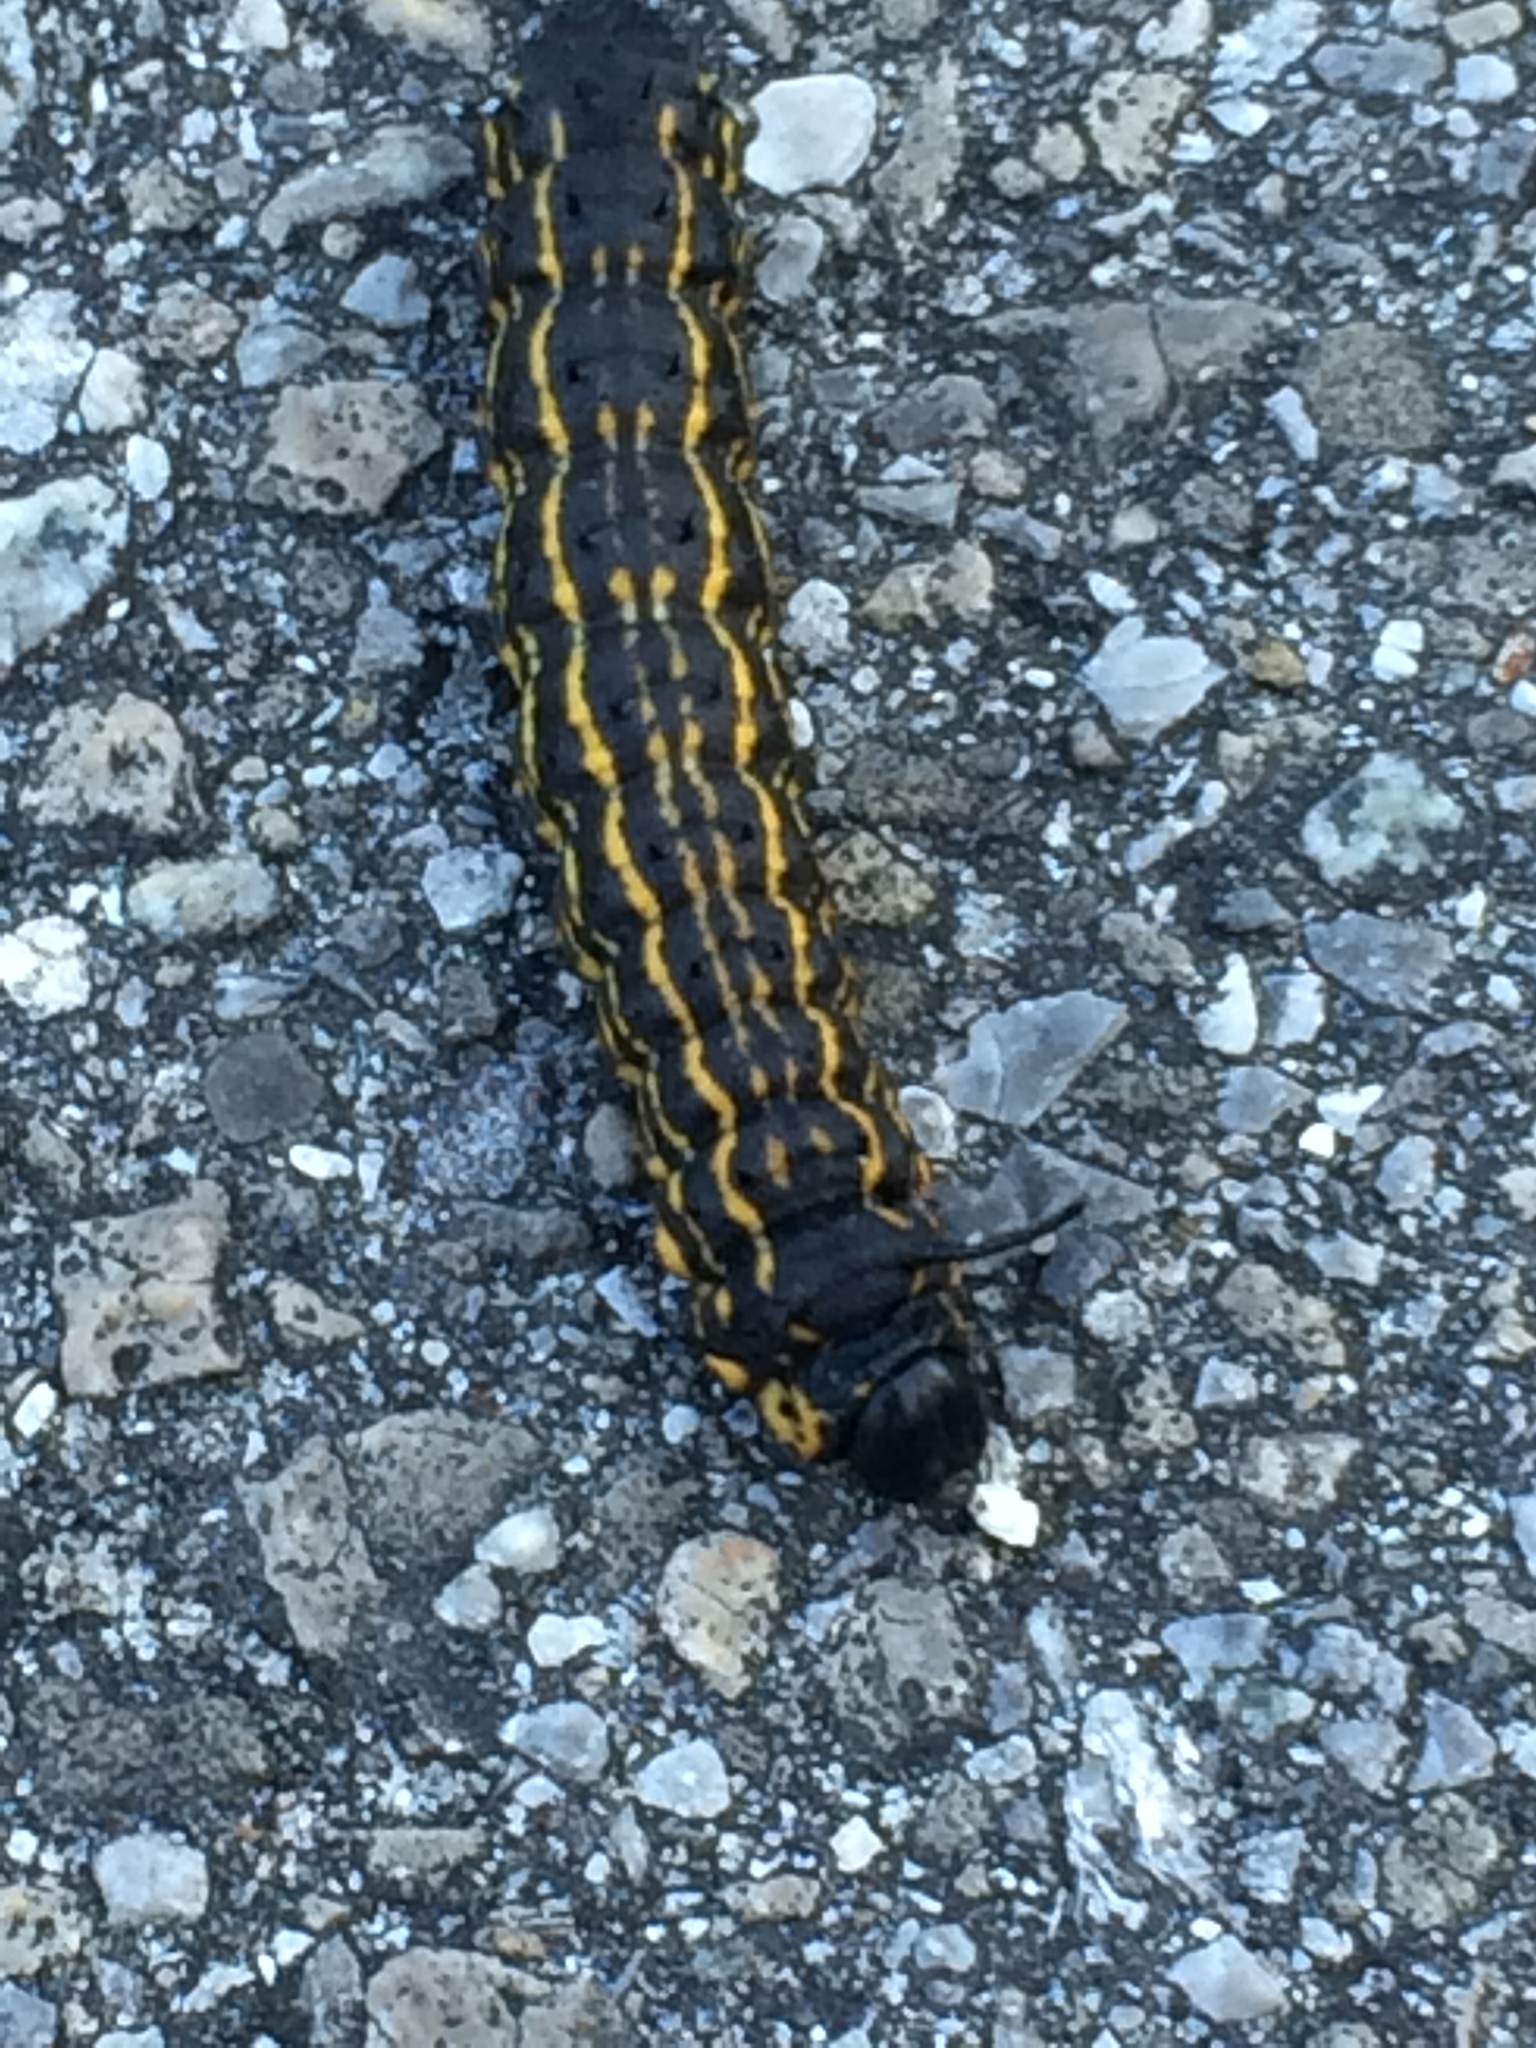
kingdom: Animalia
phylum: Arthropoda
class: Insecta
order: Lepidoptera
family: Saturniidae
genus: Anisota
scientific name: Anisota peigleri
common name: Peigler's oakworm moth
